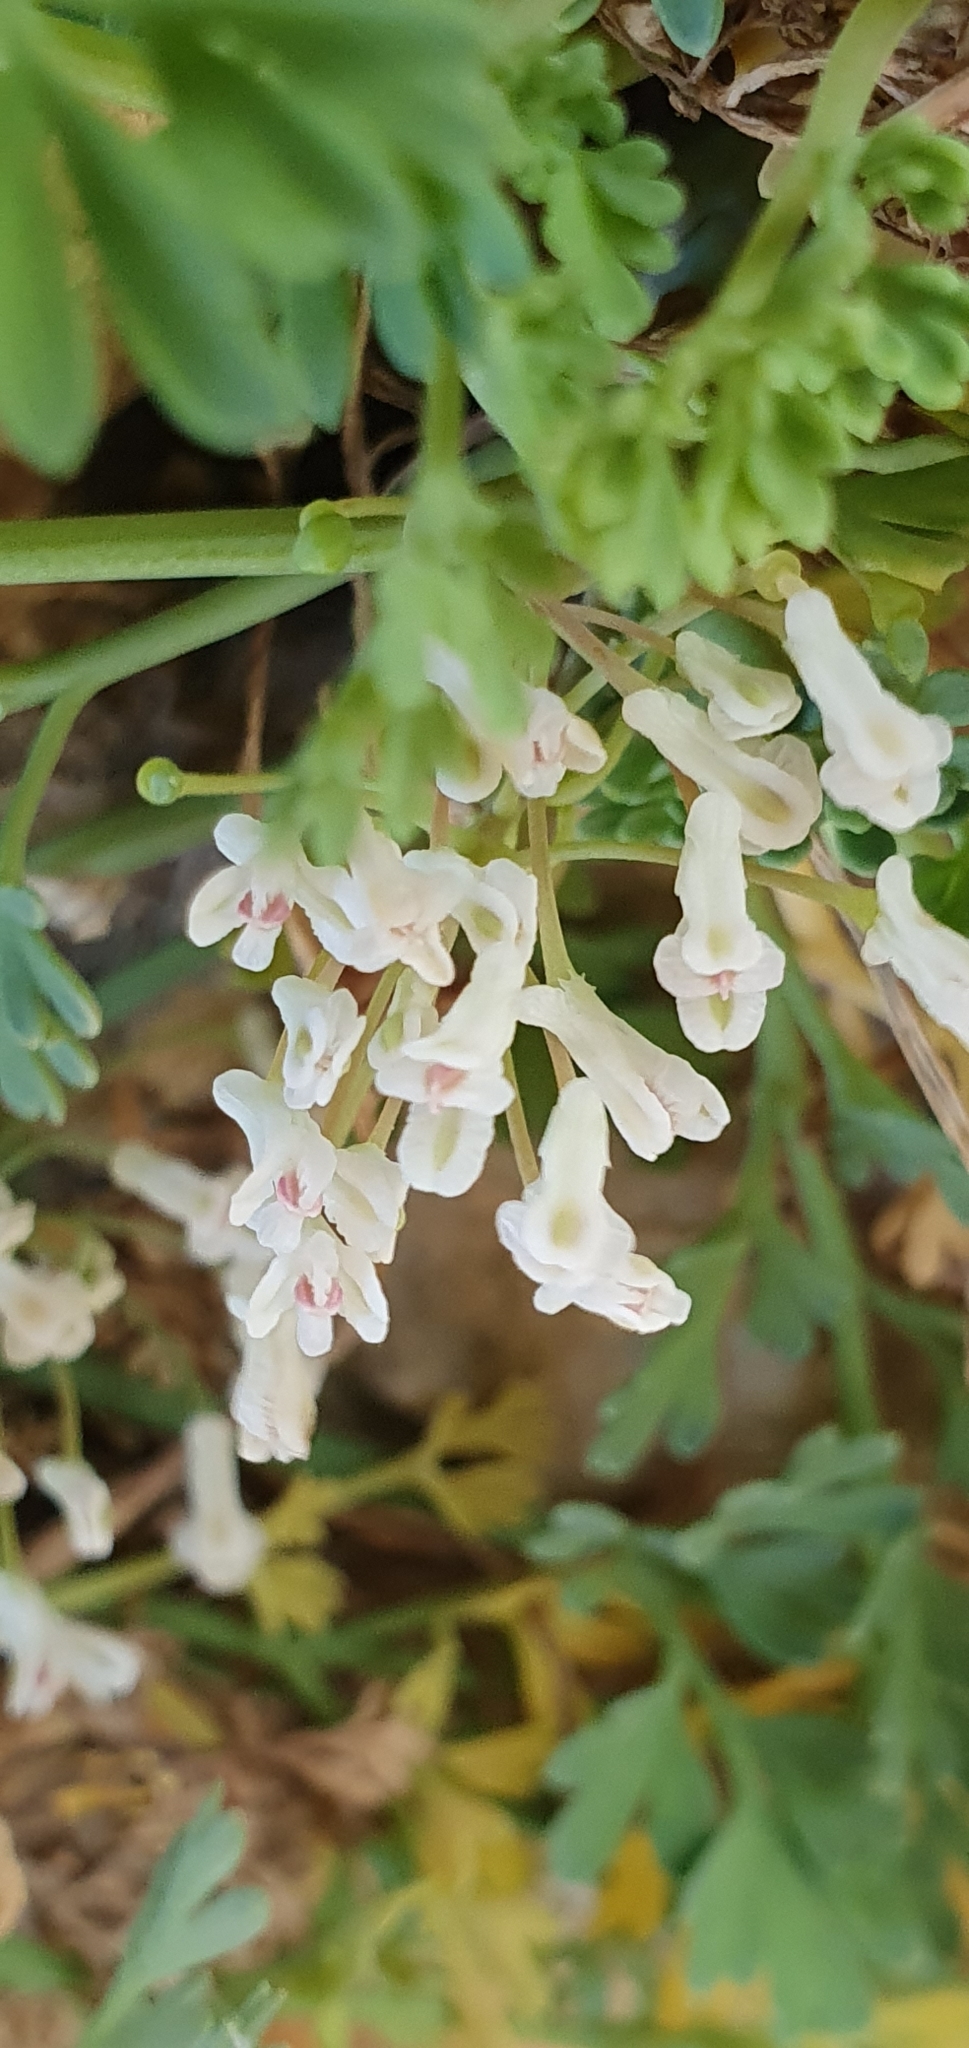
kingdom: Plantae
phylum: Tracheophyta
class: Magnoliopsida
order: Ranunculales
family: Papaveraceae
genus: Rupicapnos
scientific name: Rupicapnos numidica
